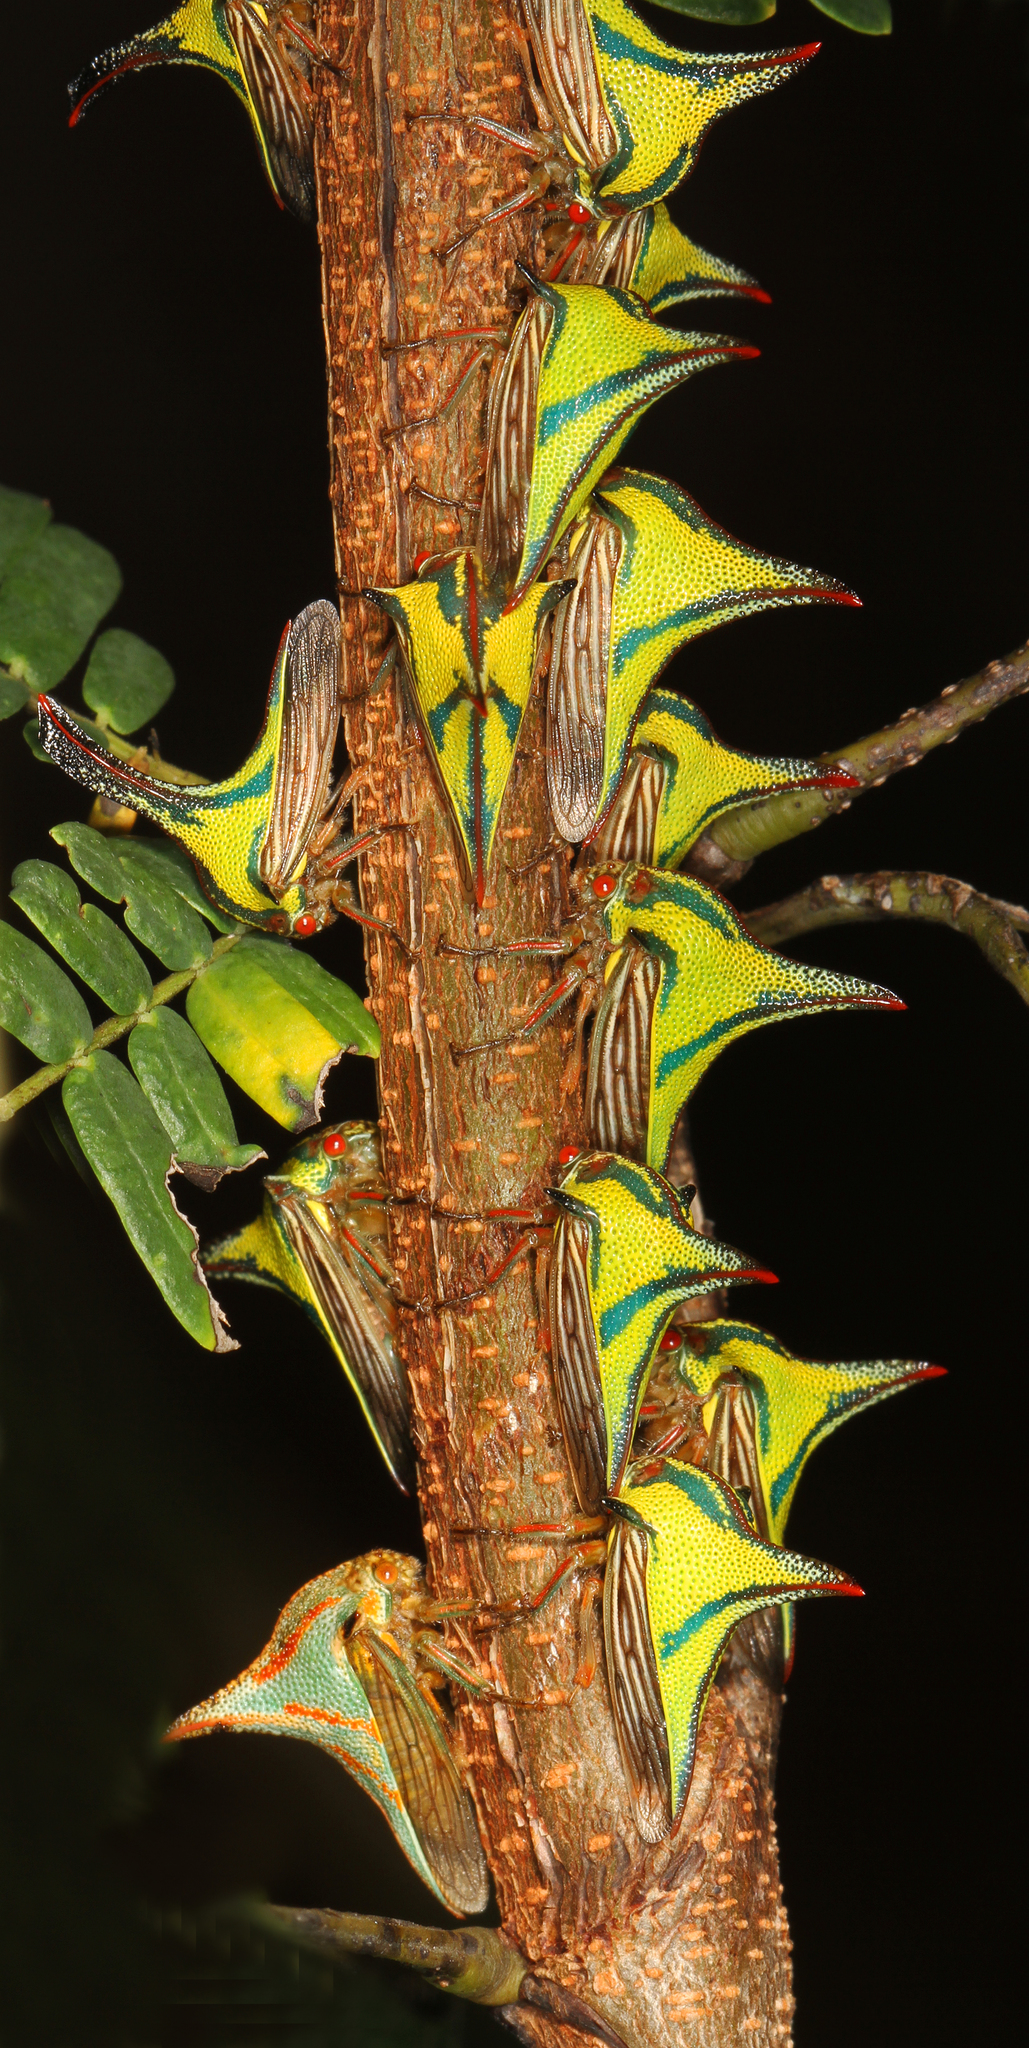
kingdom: Animalia
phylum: Arthropoda
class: Insecta
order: Hemiptera
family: Membracidae
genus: Umbonia
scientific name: Umbonia crassicornis
